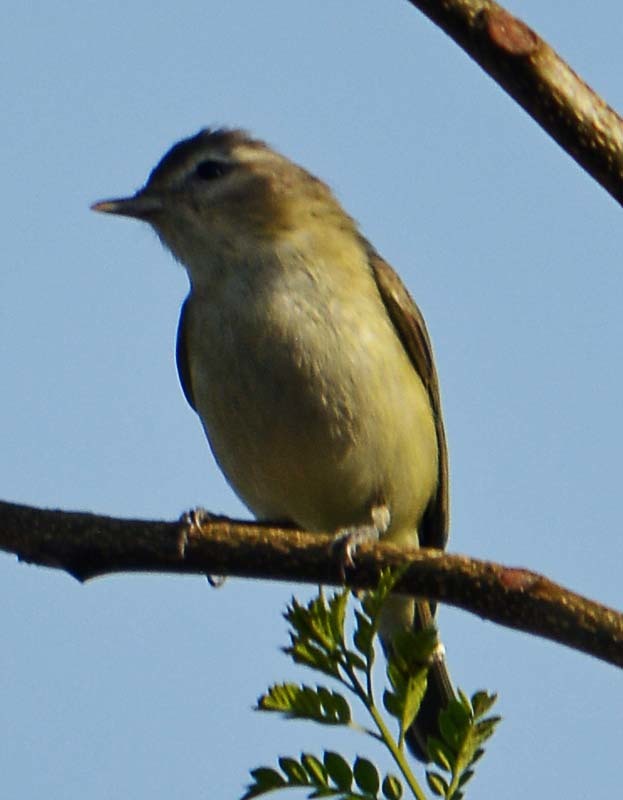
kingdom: Animalia
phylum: Chordata
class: Aves
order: Passeriformes
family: Vireonidae
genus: Vireo
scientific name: Vireo gilvus
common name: Warbling vireo
